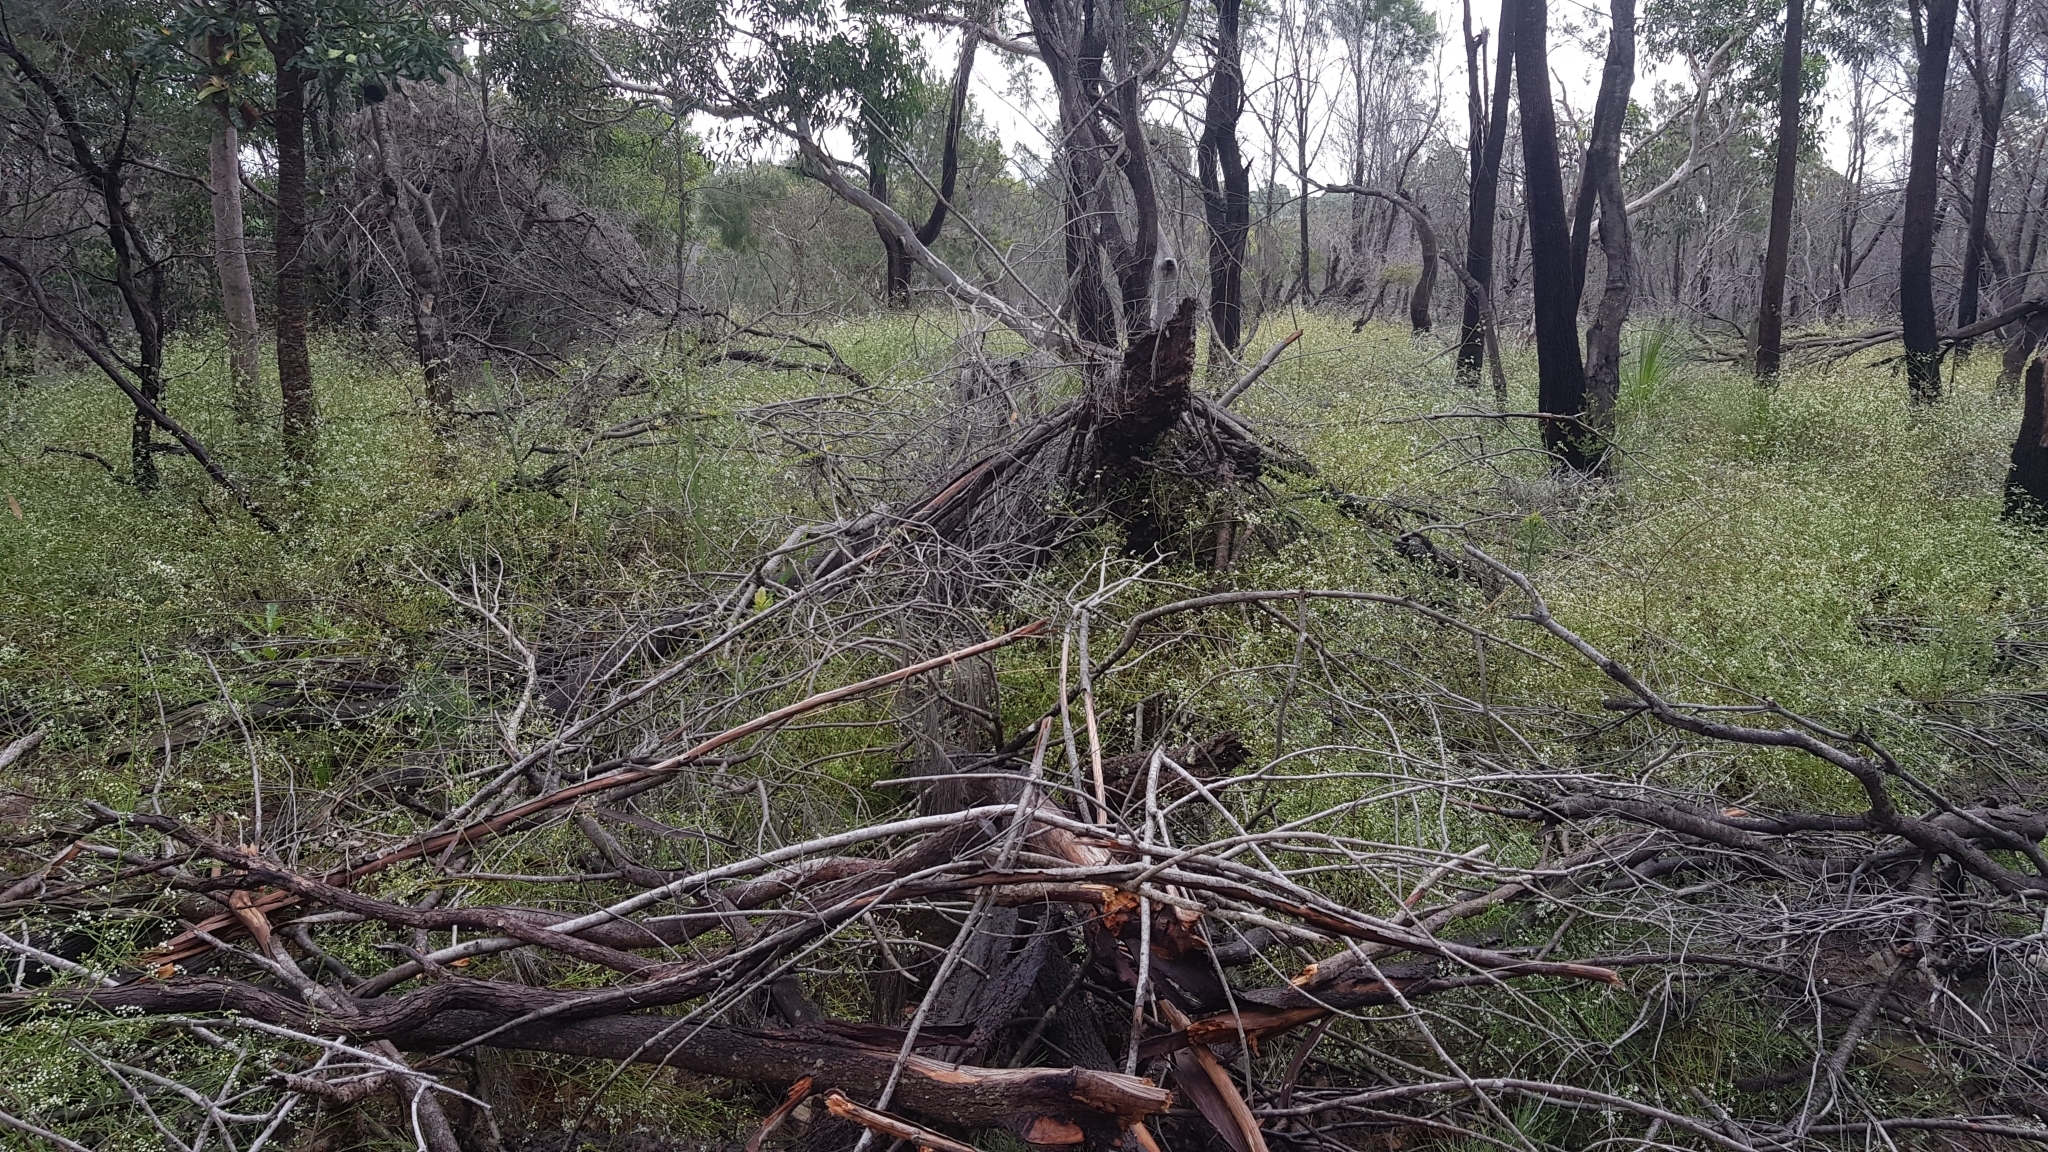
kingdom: Plantae
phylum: Tracheophyta
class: Magnoliopsida
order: Apiales
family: Apiaceae
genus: Platysace
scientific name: Platysace linearifolia
